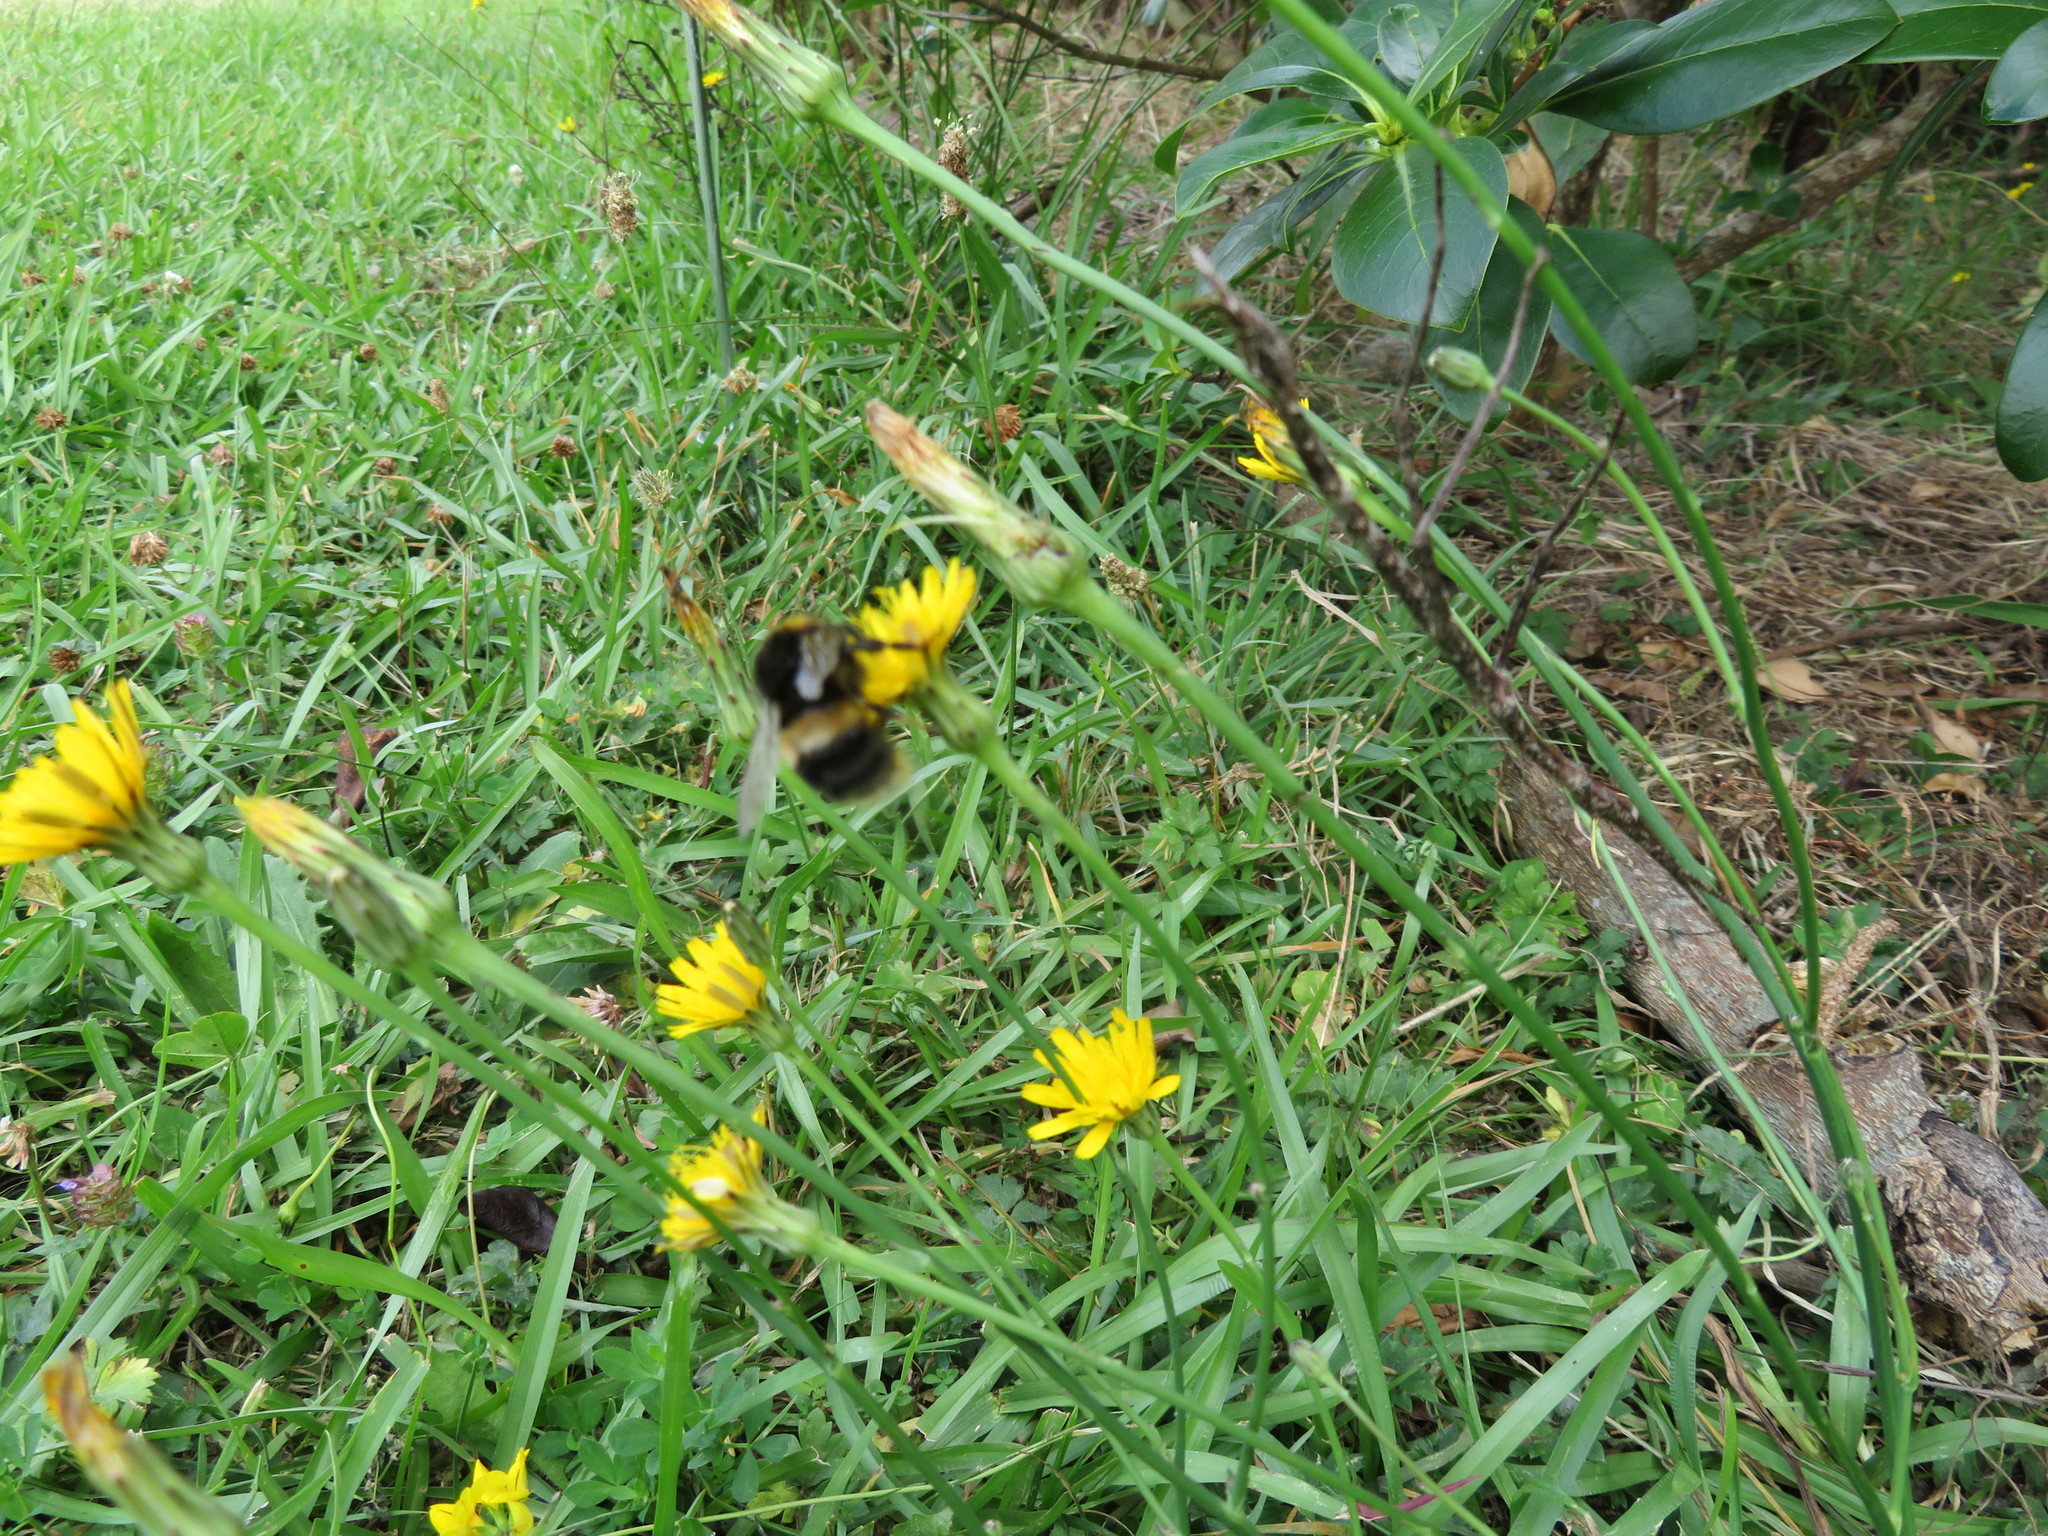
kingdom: Animalia
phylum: Arthropoda
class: Insecta
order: Hymenoptera
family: Apidae
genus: Bombus
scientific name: Bombus terrestris
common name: Buff-tailed bumblebee
